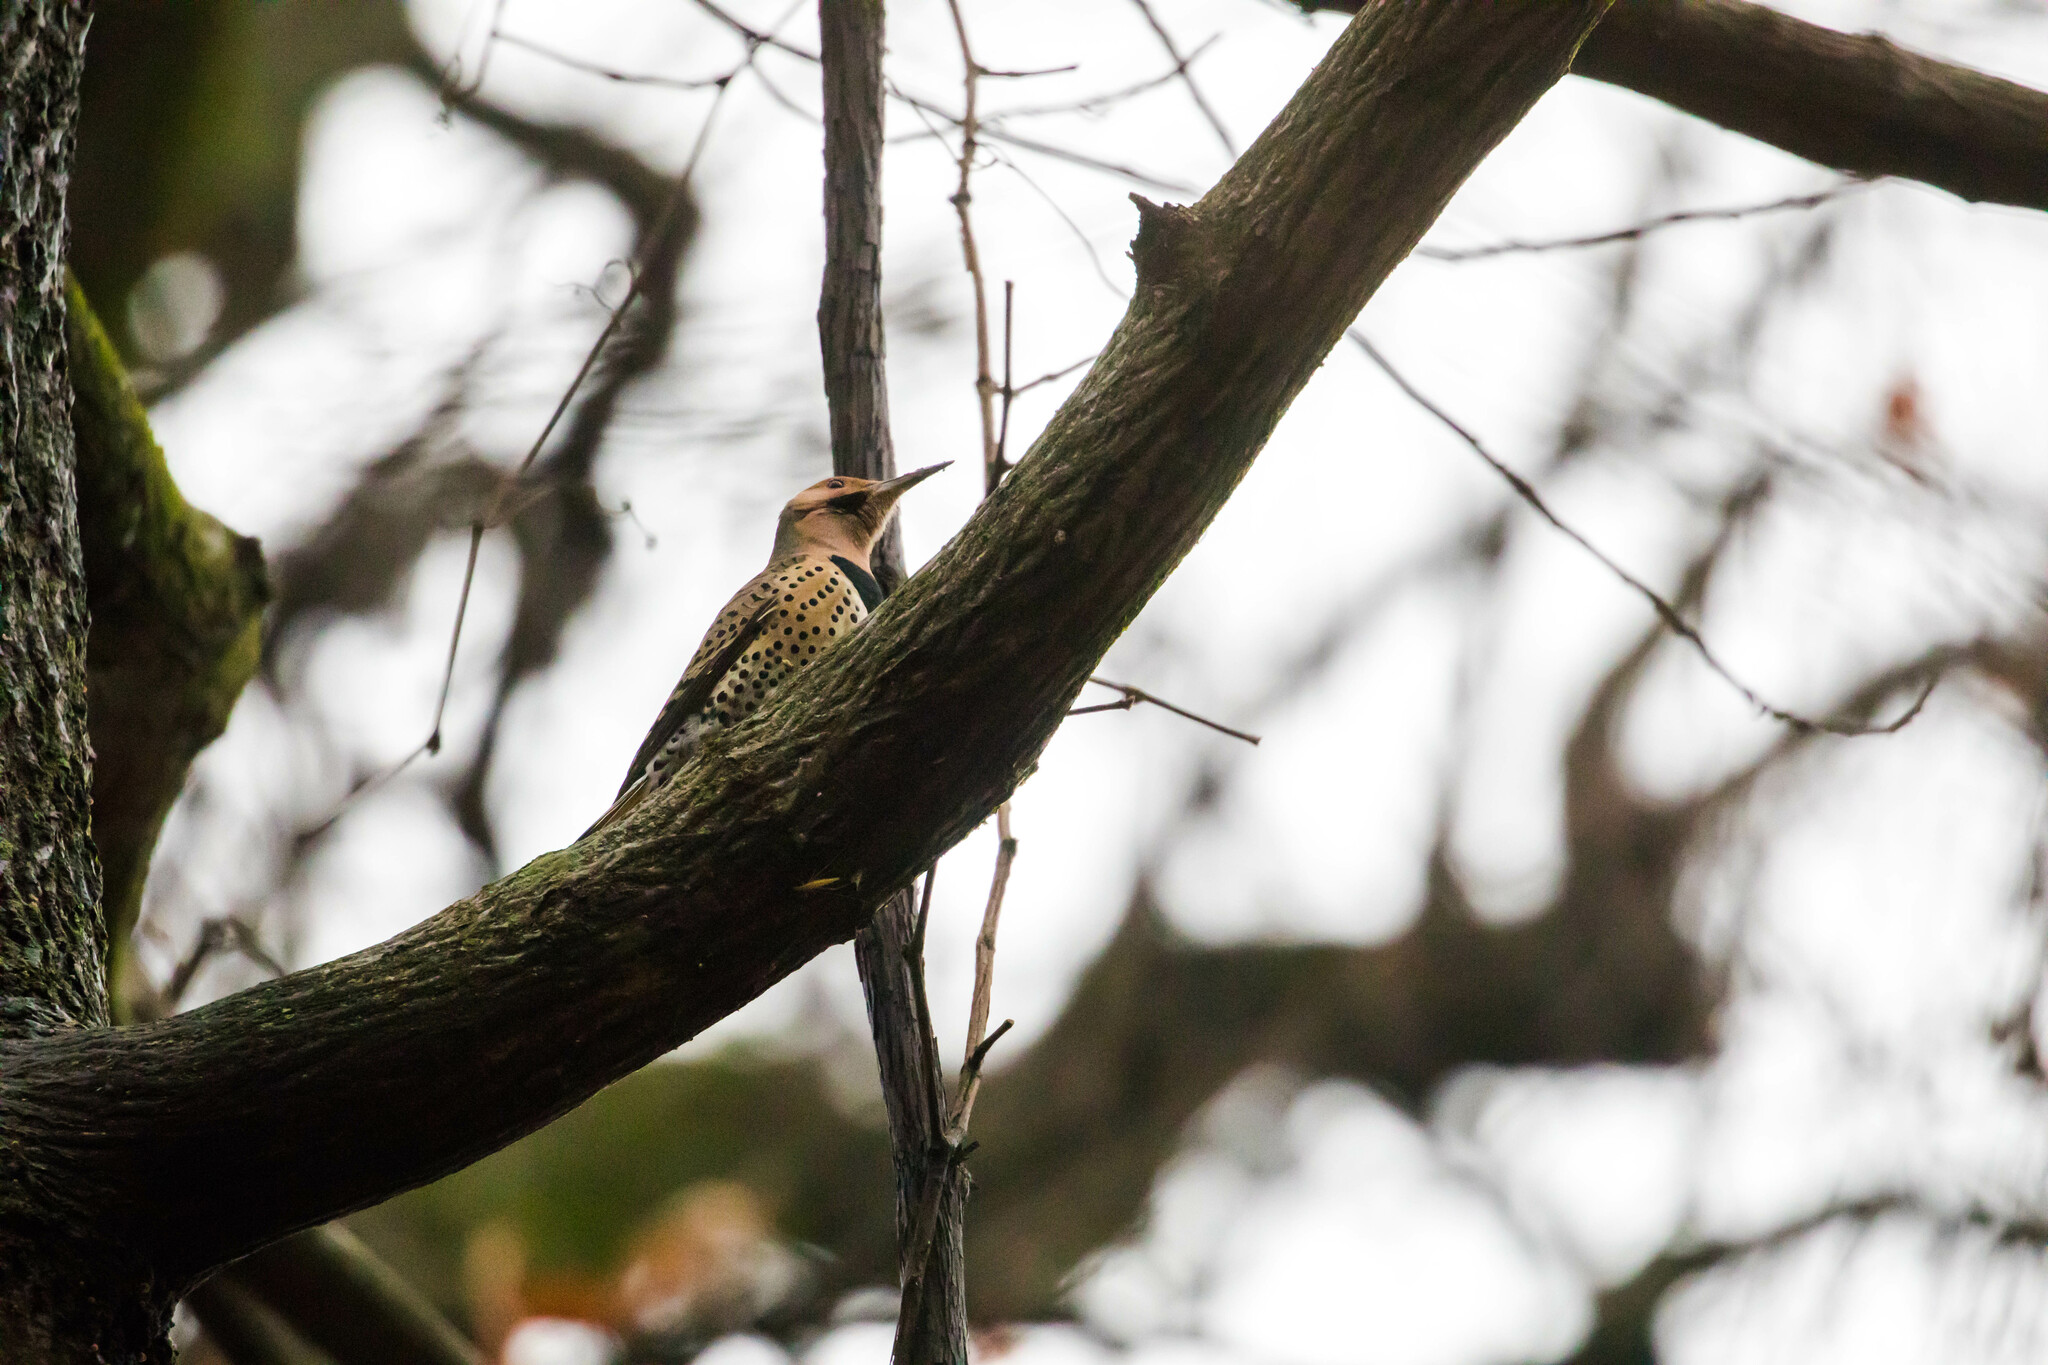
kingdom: Animalia
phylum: Chordata
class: Aves
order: Piciformes
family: Picidae
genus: Colaptes
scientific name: Colaptes auratus
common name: Northern flicker
